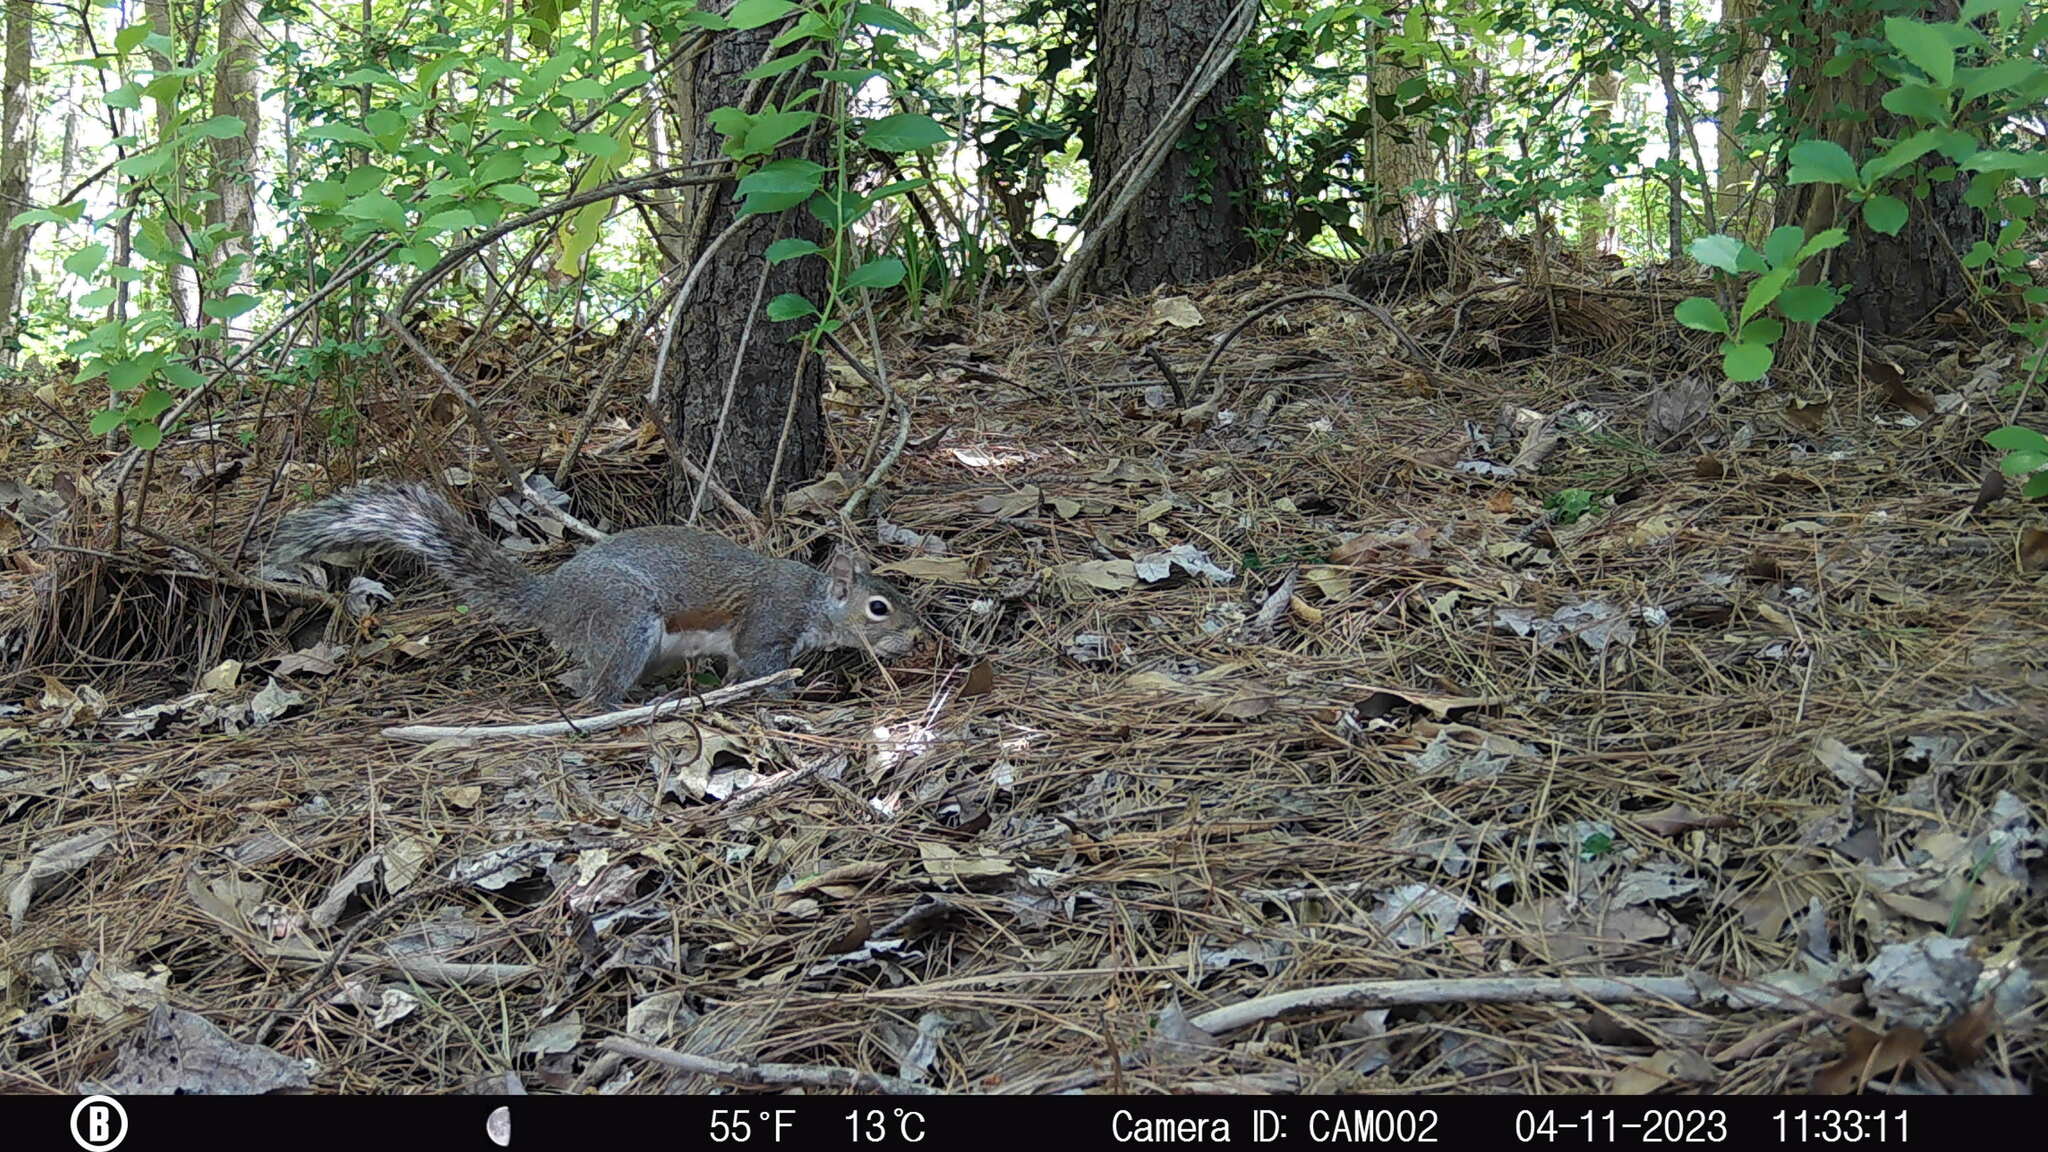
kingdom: Animalia
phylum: Chordata
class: Mammalia
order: Rodentia
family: Sciuridae
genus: Sciurus
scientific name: Sciurus carolinensis
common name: Eastern gray squirrel
